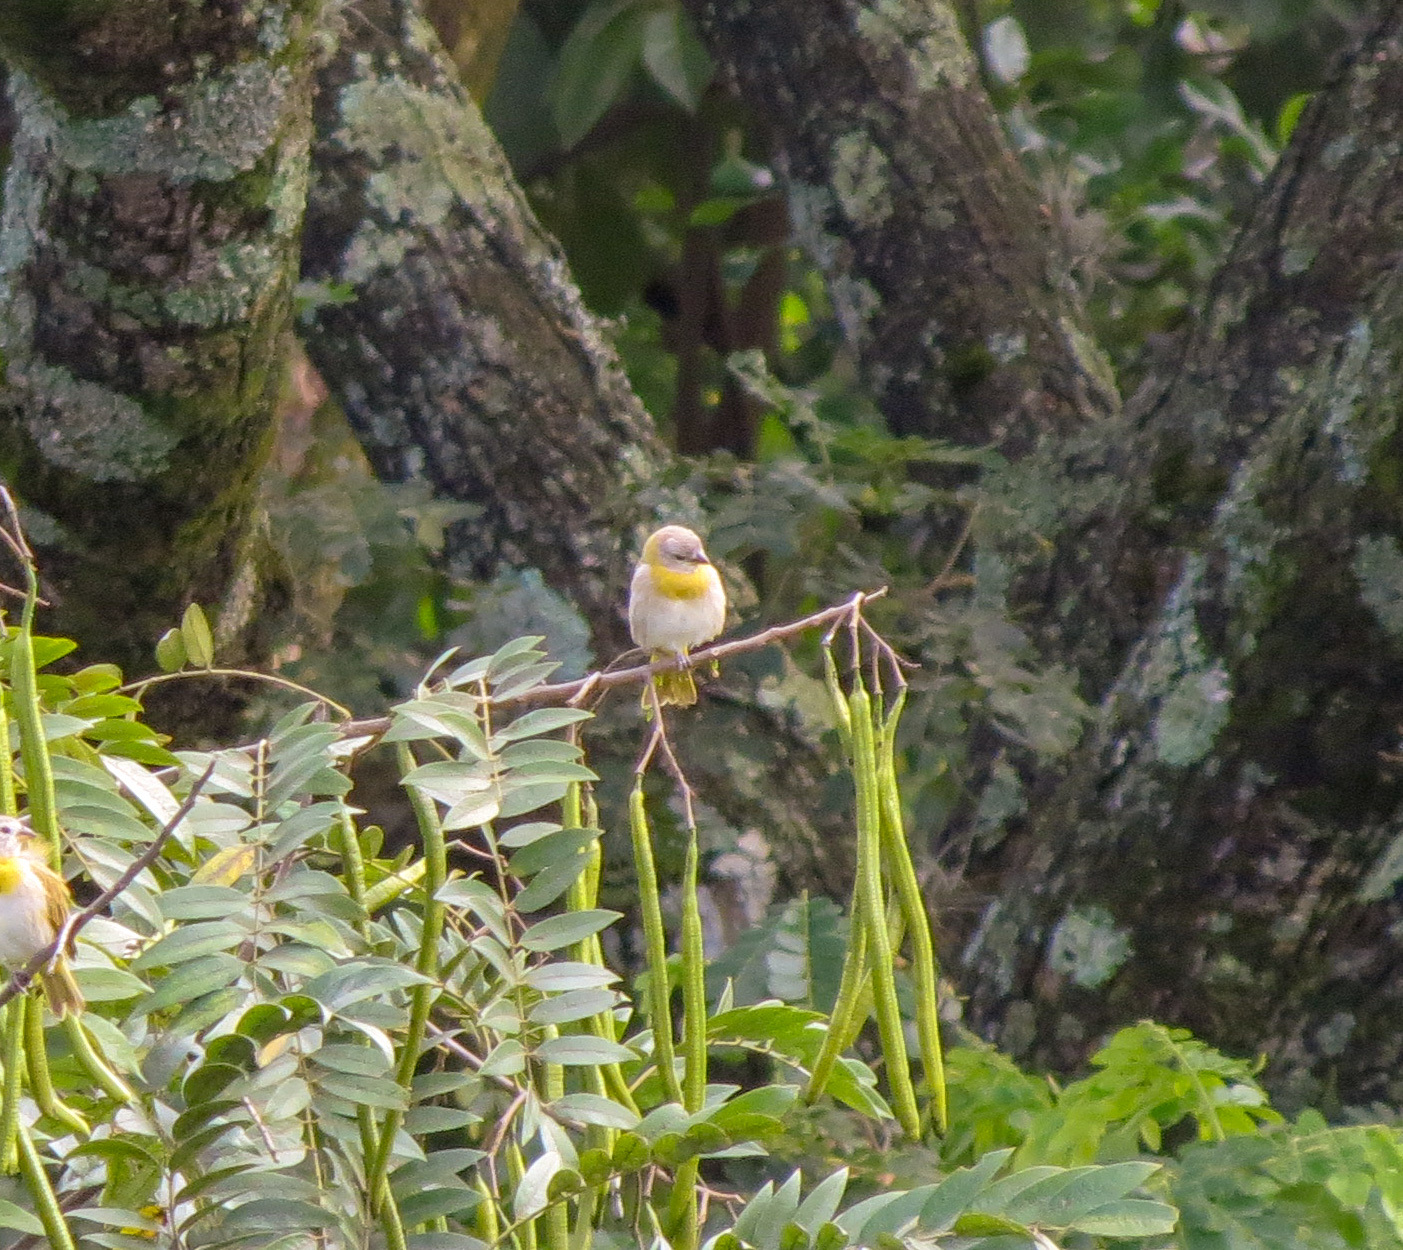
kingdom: Animalia
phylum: Chordata
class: Aves
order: Passeriformes
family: Thraupidae
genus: Sicalis
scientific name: Sicalis flaveola
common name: Saffron finch
